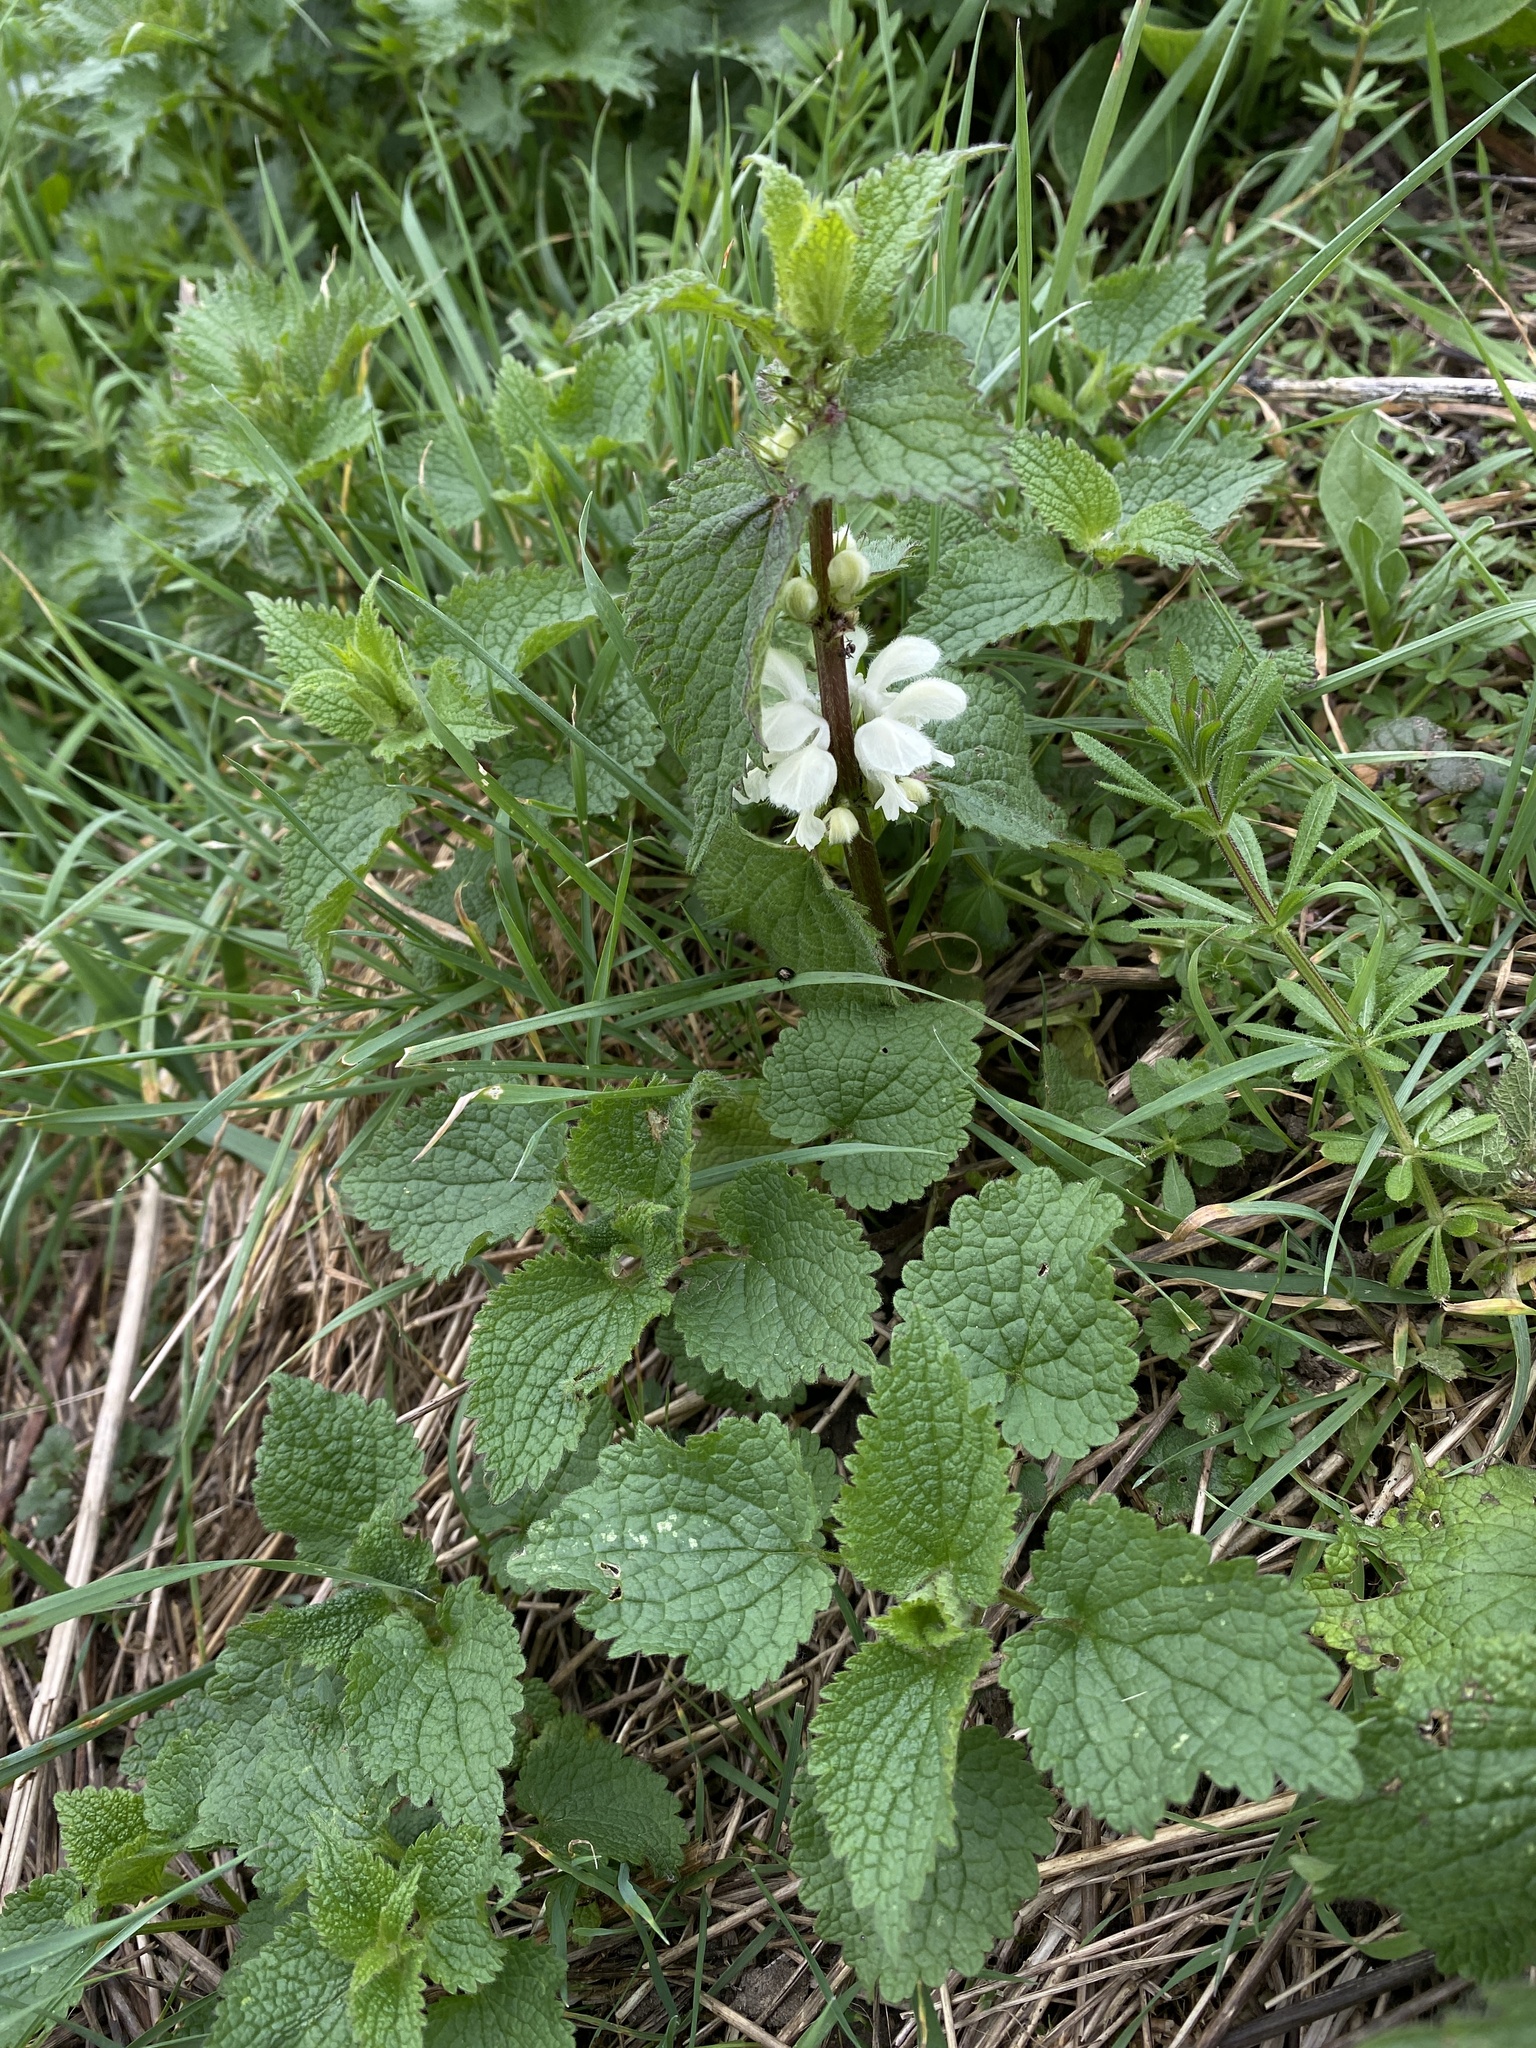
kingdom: Plantae
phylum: Tracheophyta
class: Magnoliopsida
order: Lamiales
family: Lamiaceae
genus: Lamium
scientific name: Lamium album
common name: White dead-nettle
